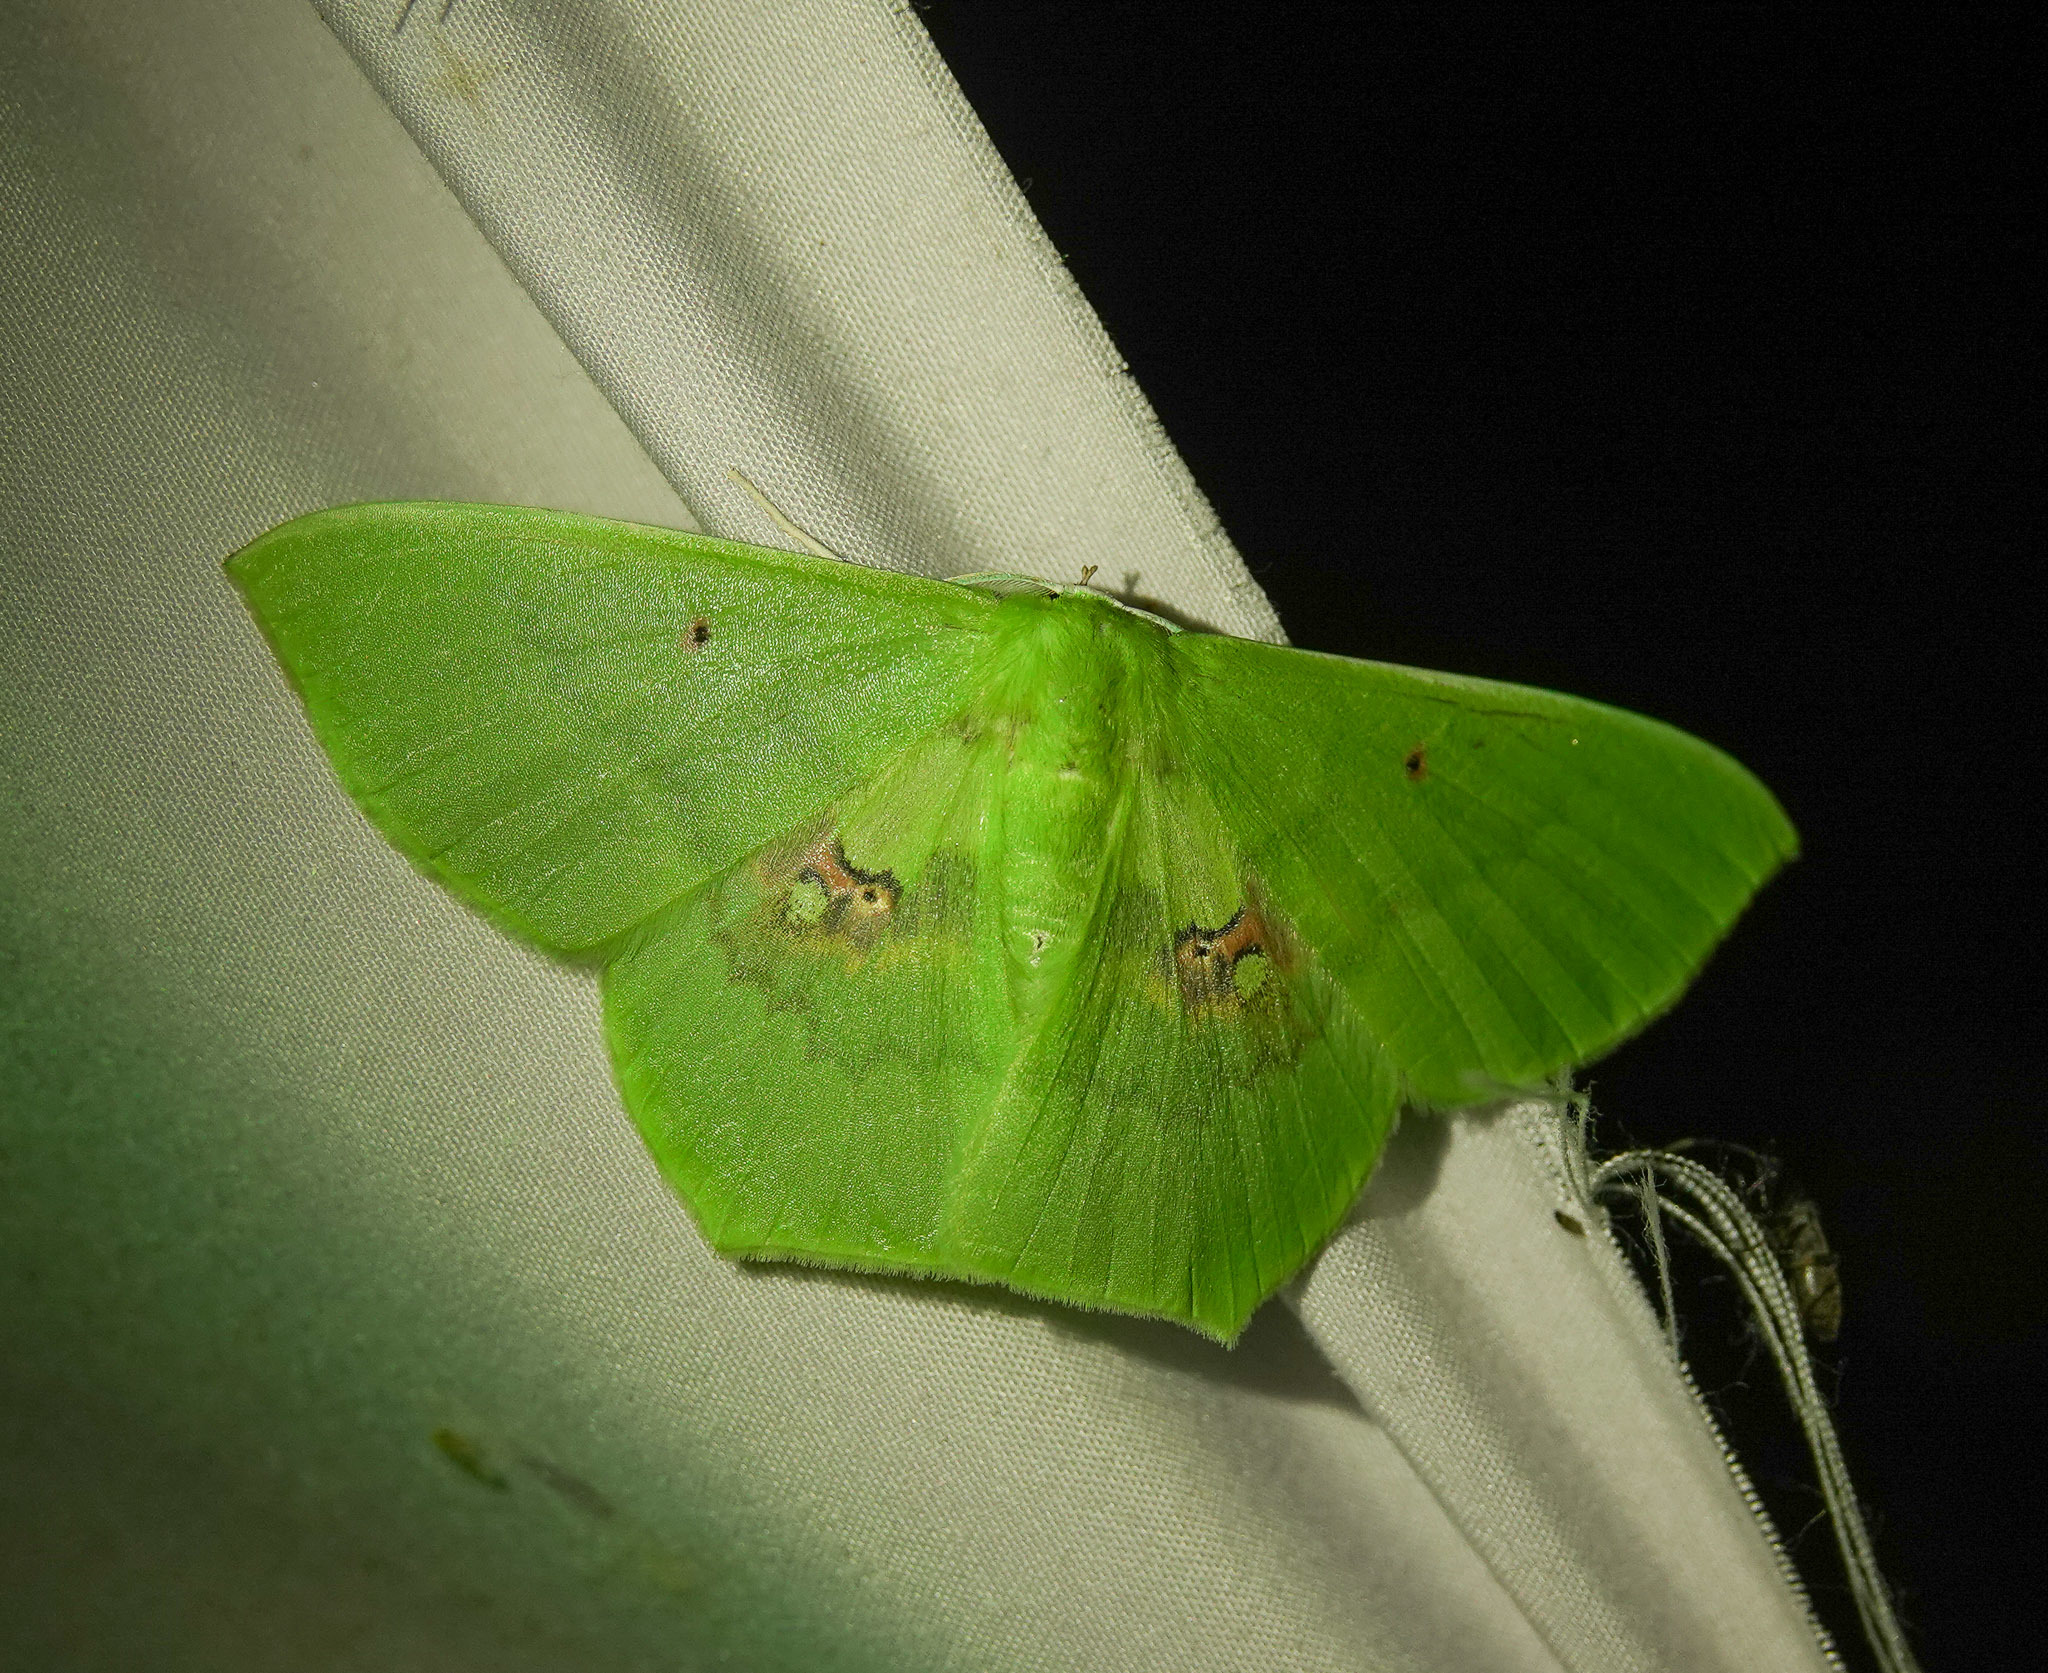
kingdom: Animalia
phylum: Arthropoda
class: Insecta
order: Lepidoptera
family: Geometridae
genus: Aporandria
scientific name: Aporandria specularia
